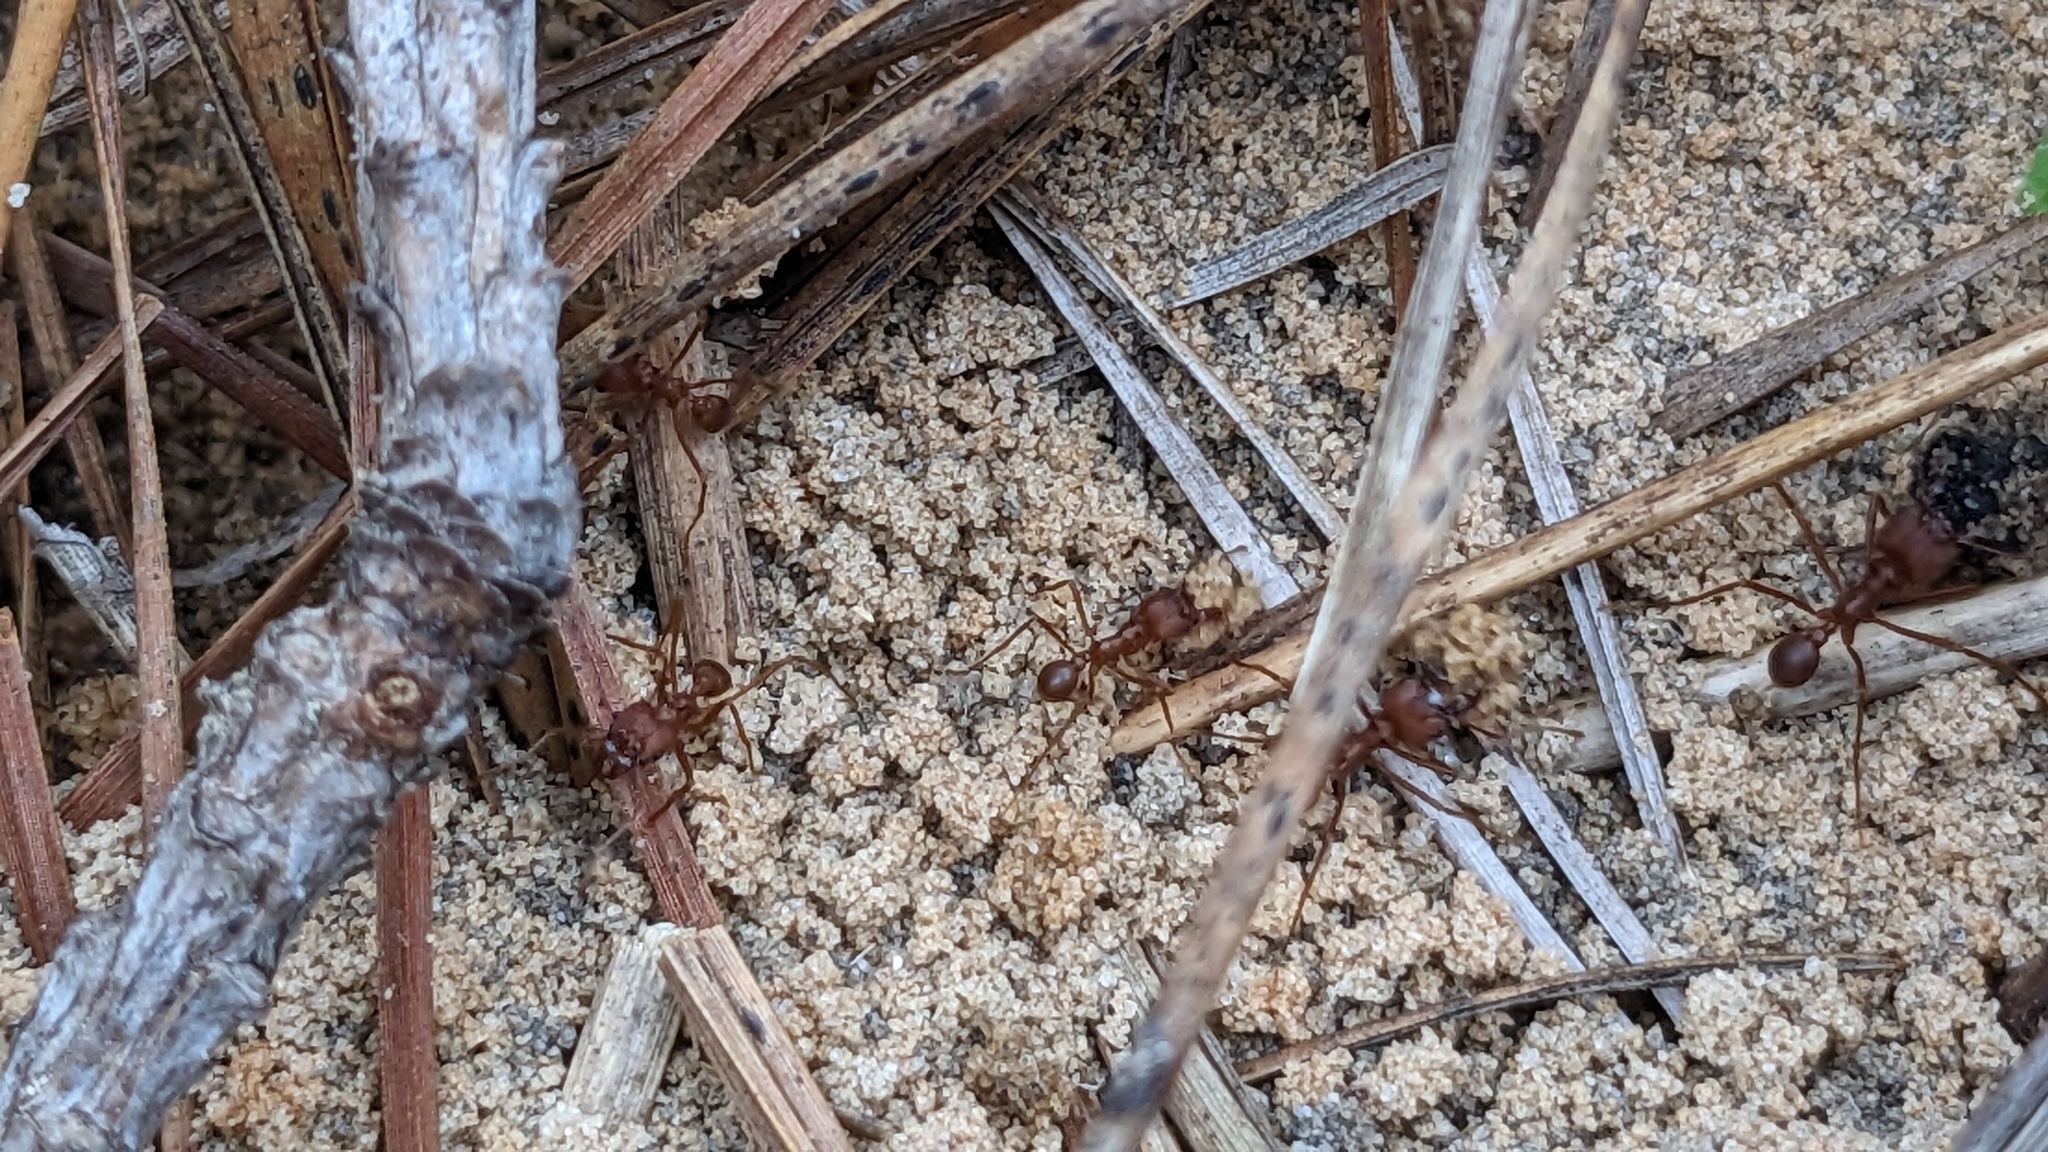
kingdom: Animalia
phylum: Arthropoda
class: Insecta
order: Hymenoptera
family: Formicidae
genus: Atta
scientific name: Atta texana
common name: Texas leafcutting ant
